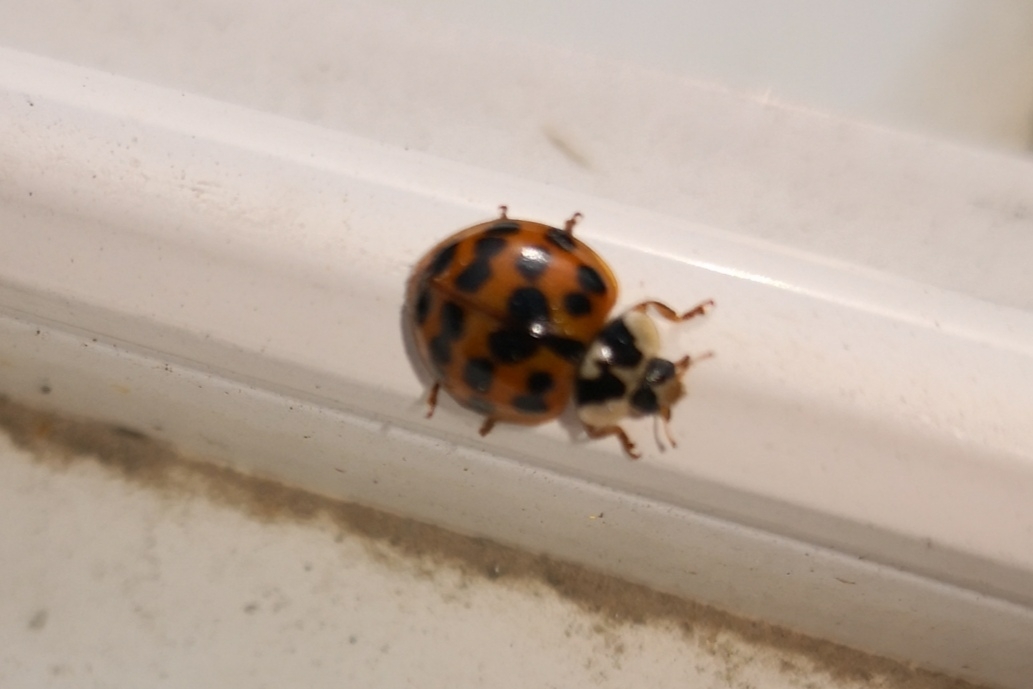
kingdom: Animalia
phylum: Arthropoda
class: Insecta
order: Coleoptera
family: Coccinellidae
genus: Harmonia
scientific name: Harmonia axyridis
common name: Harlequin ladybird
